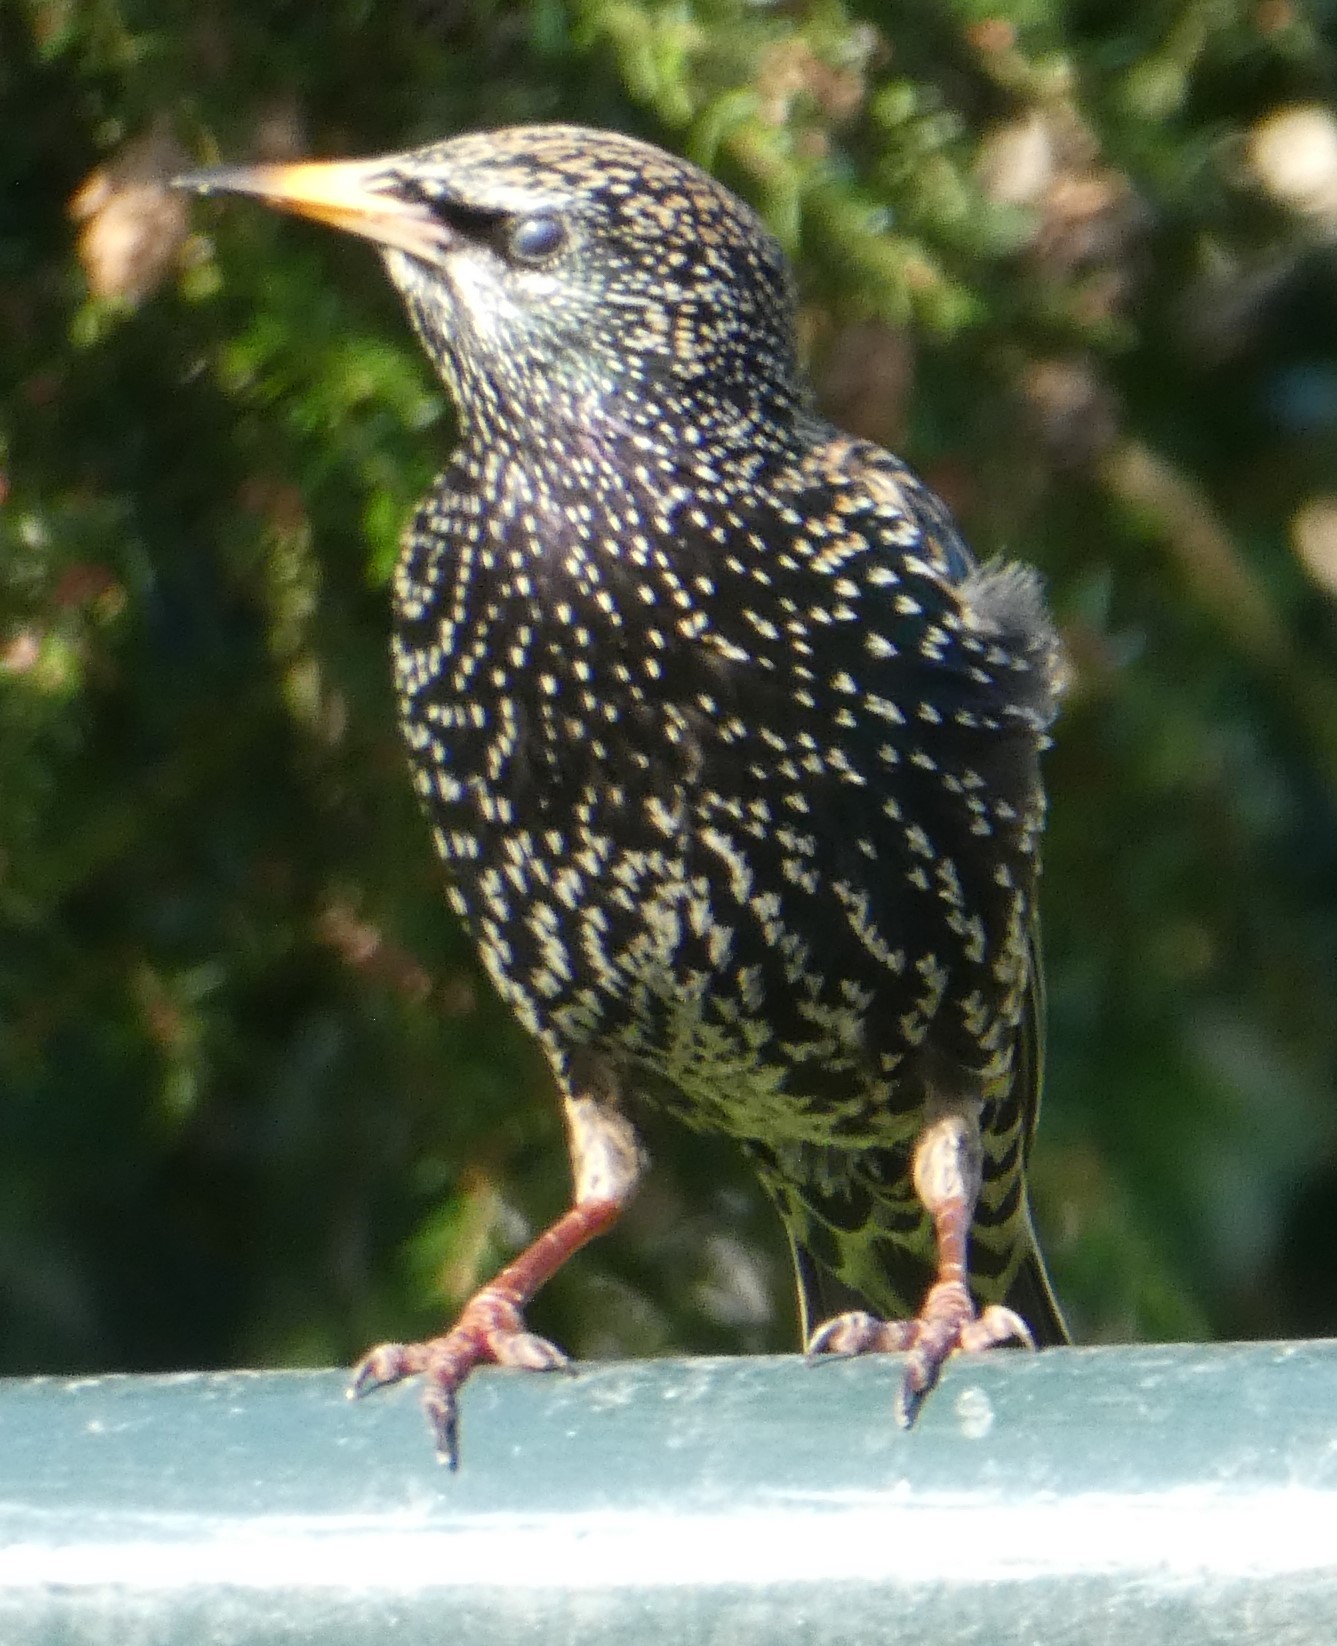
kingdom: Animalia
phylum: Chordata
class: Aves
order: Passeriformes
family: Sturnidae
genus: Sturnus
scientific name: Sturnus vulgaris
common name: Common starling
